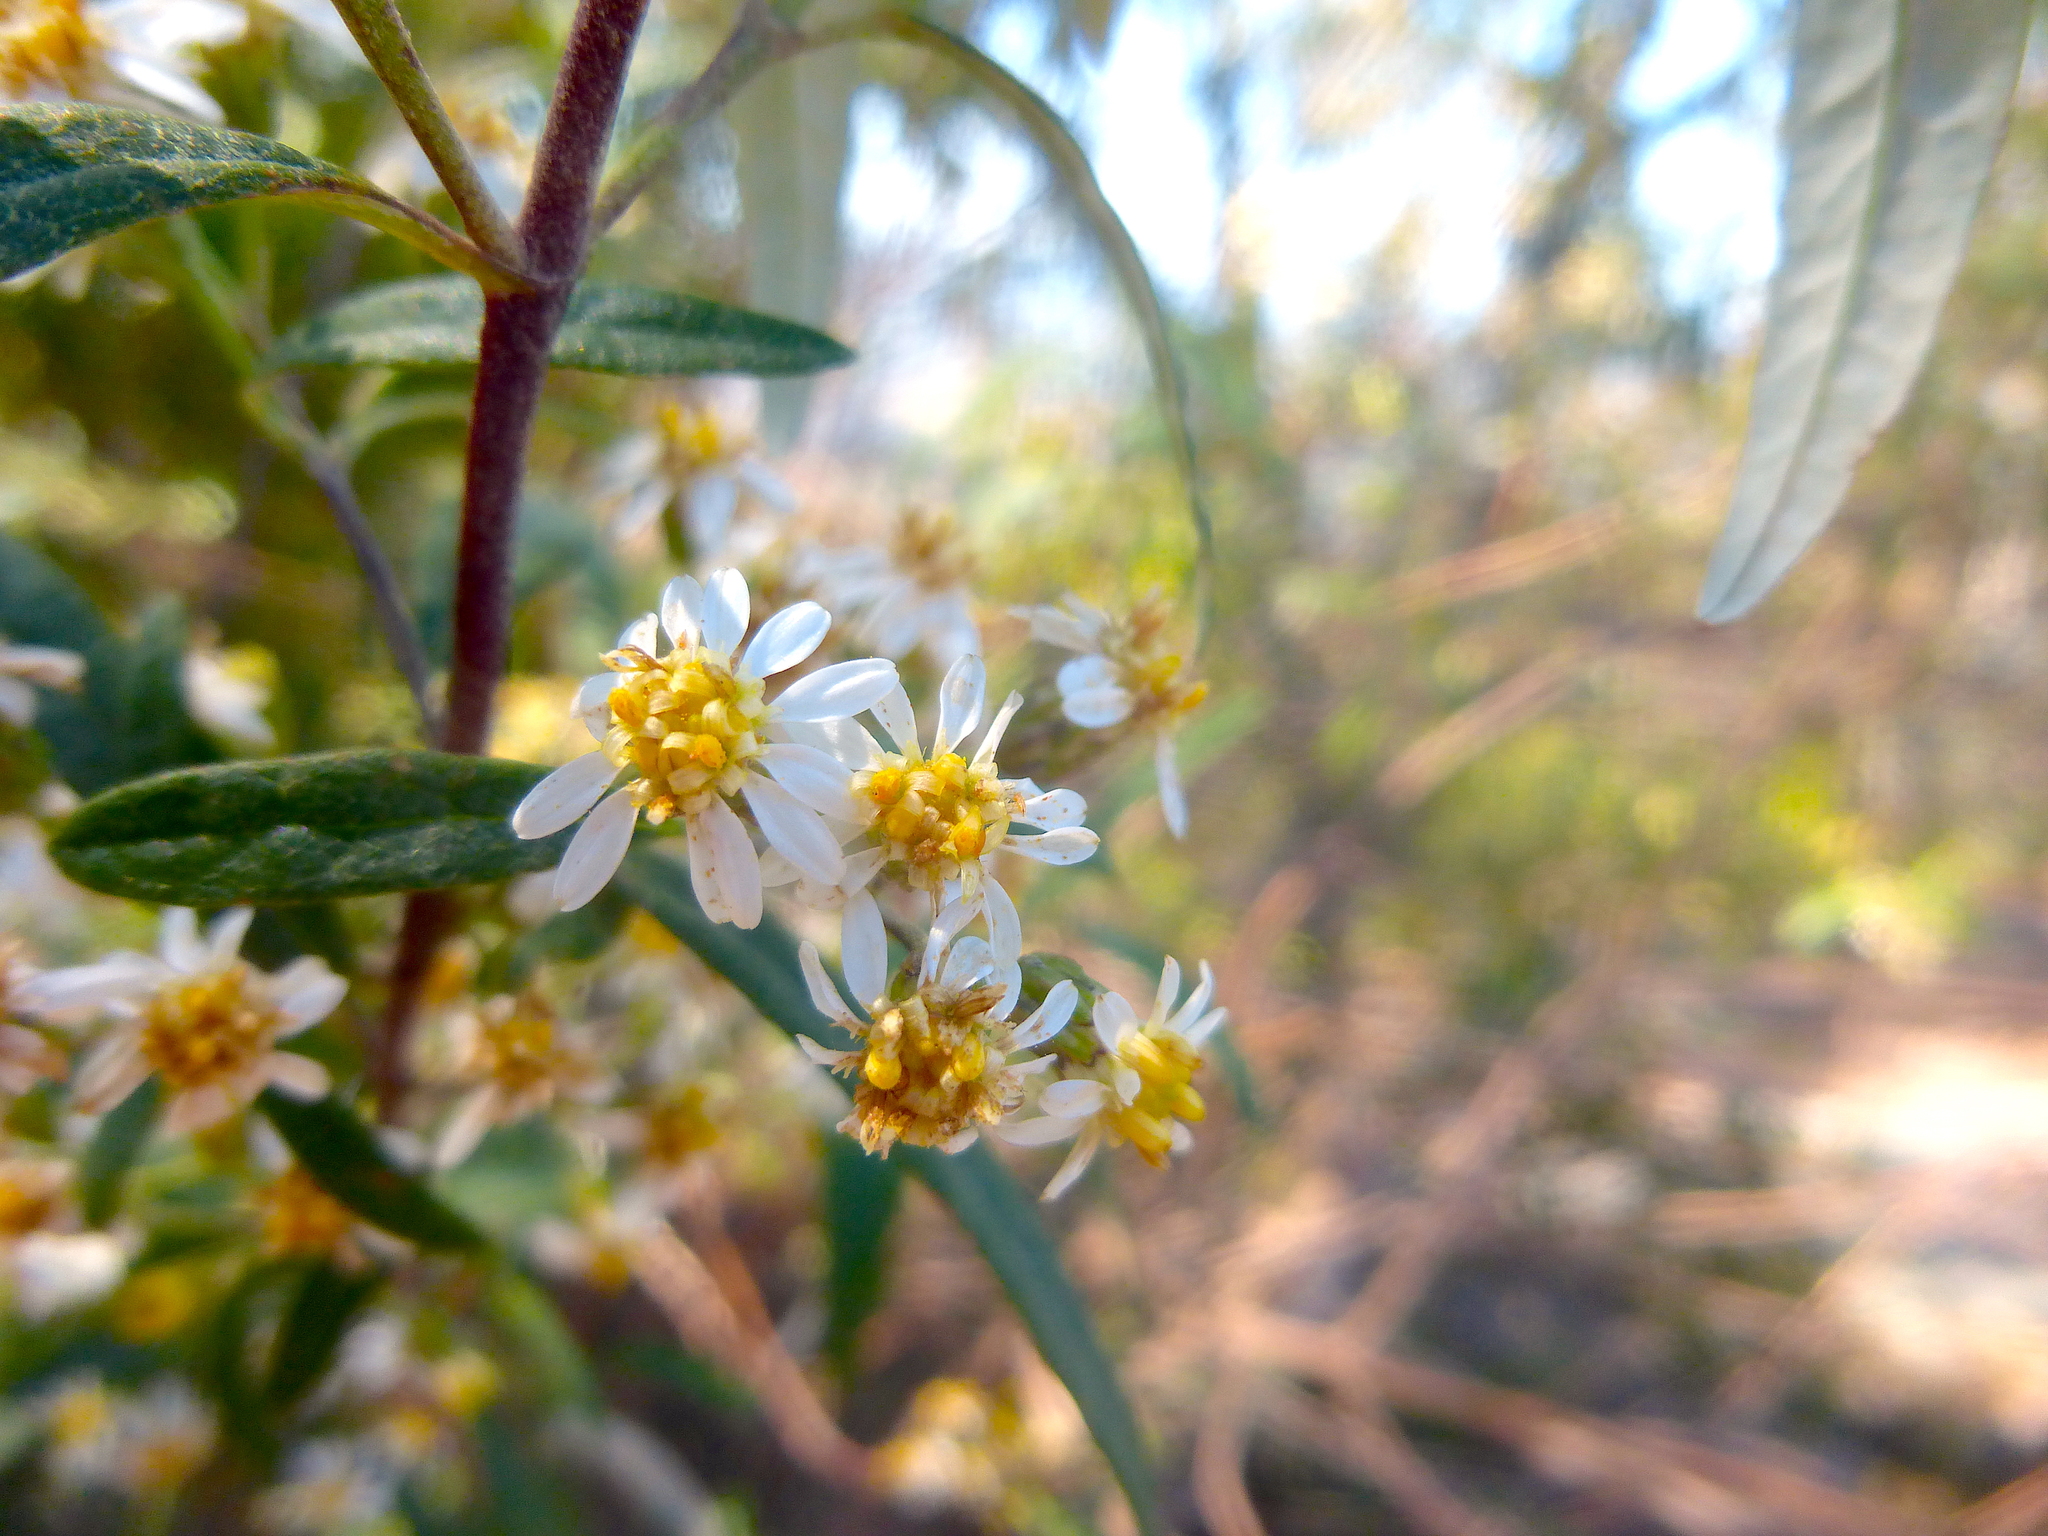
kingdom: Plantae
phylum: Tracheophyta
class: Magnoliopsida
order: Asterales
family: Asteraceae
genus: Olearia
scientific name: Olearia viscidula
